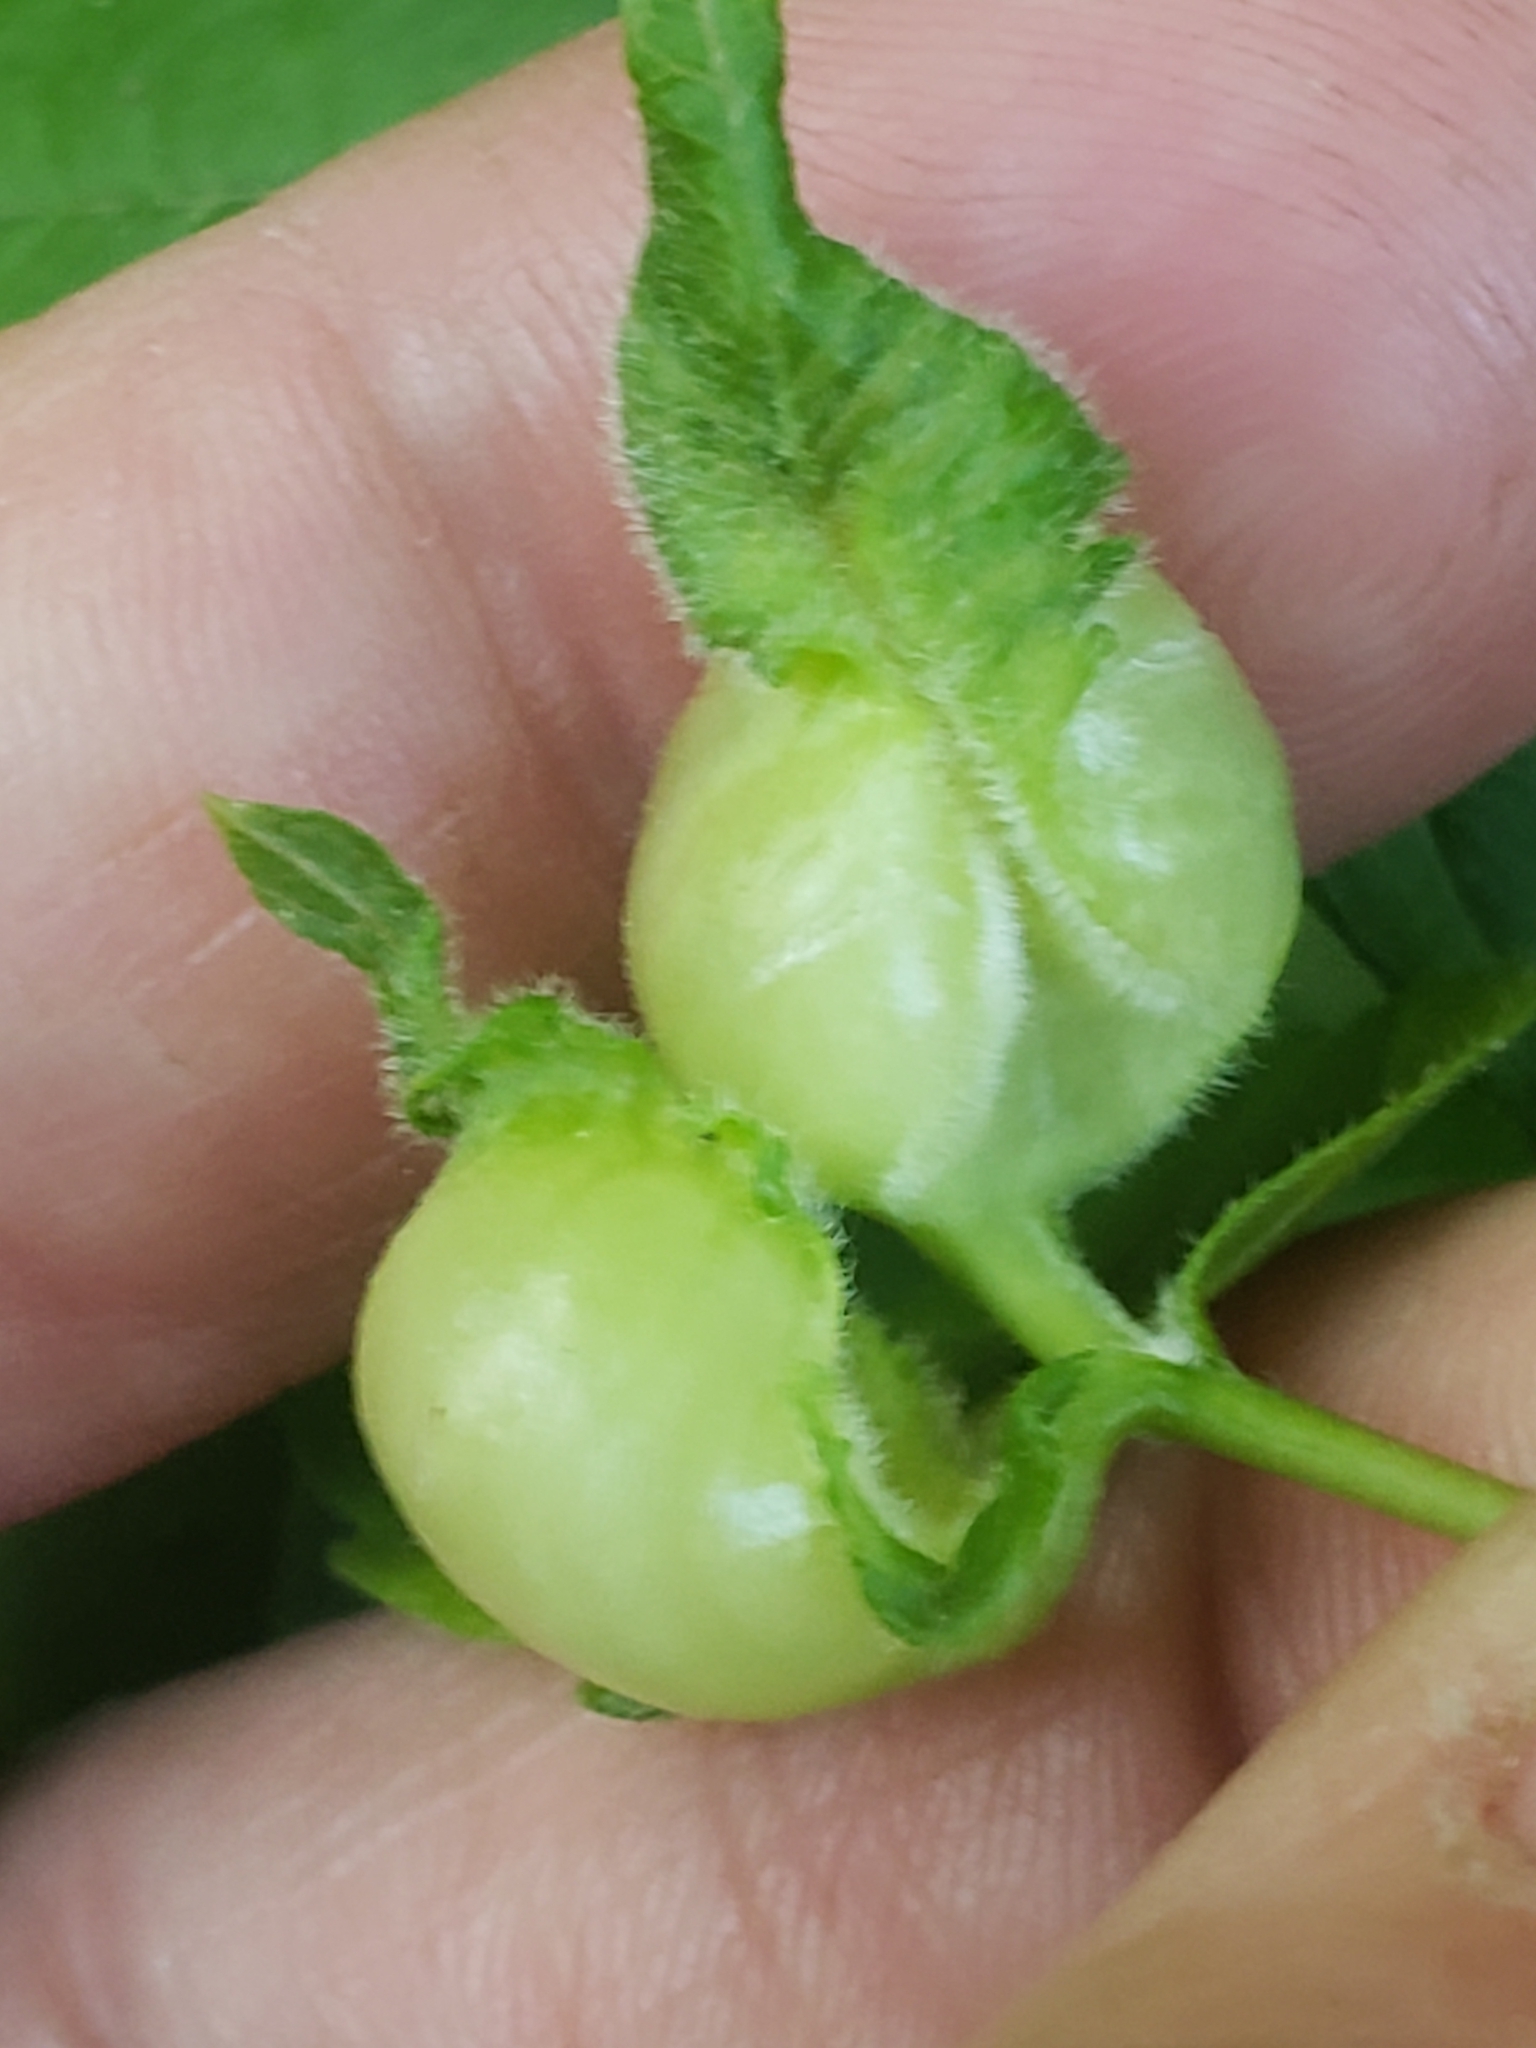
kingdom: Animalia
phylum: Arthropoda
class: Insecta
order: Diptera
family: Cecidomyiidae
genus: Contarinia
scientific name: Contarinia negundinis
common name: Boxelder budgall midge
